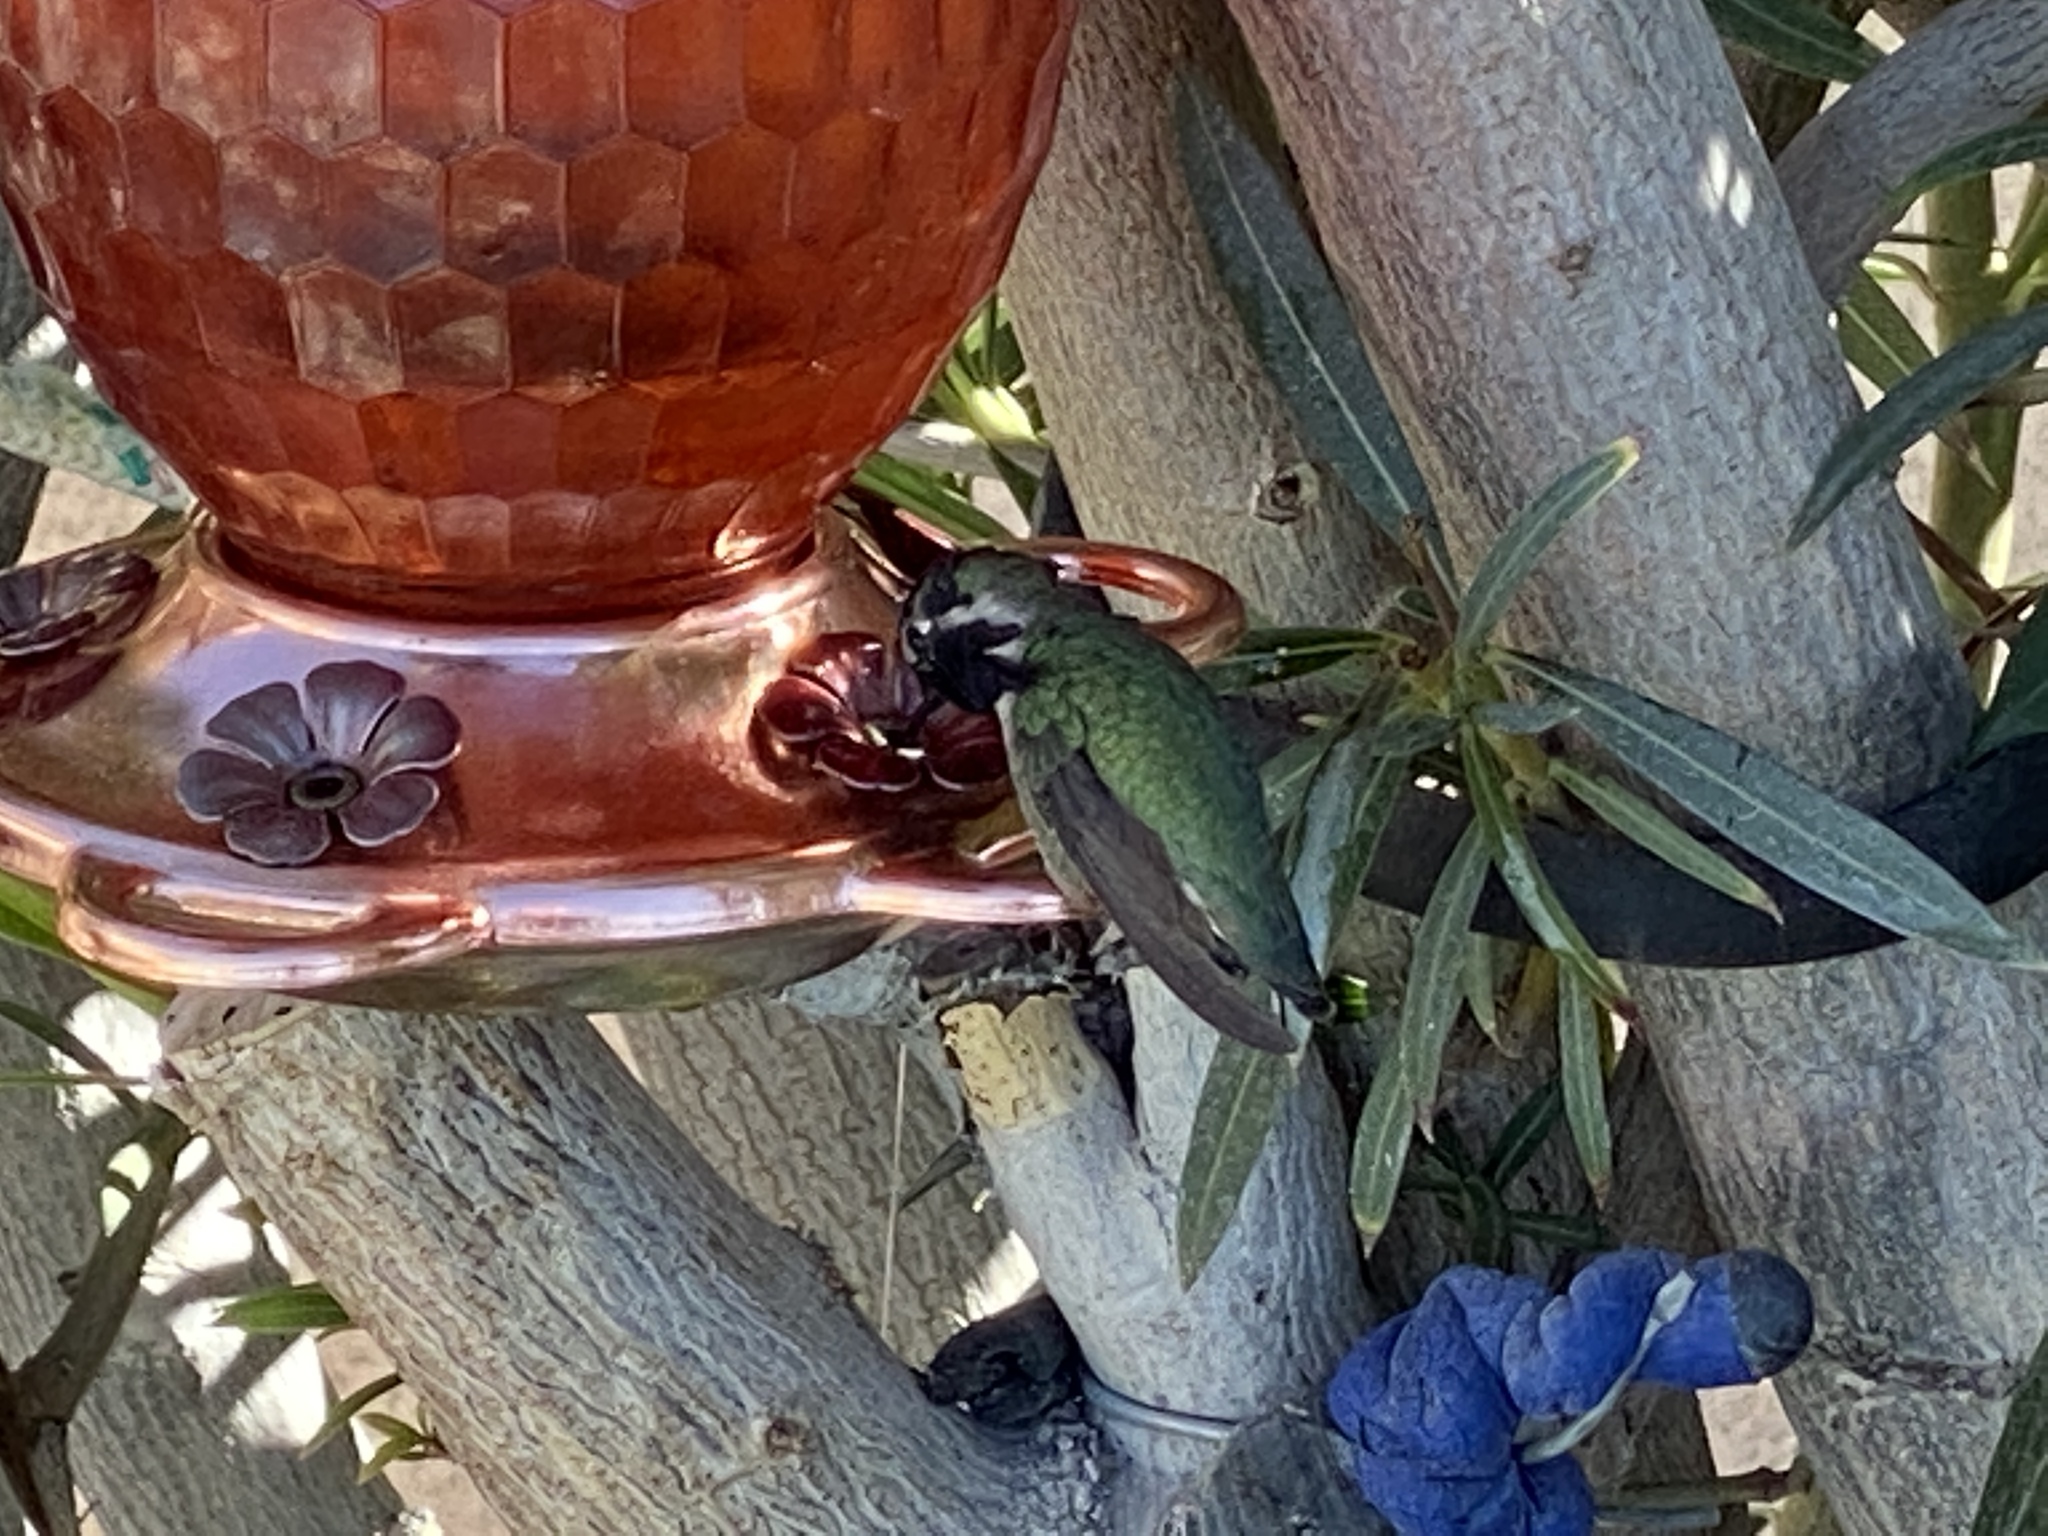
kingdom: Animalia
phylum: Chordata
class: Aves
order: Apodiformes
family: Trochilidae
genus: Calypte
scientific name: Calypte costae
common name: Costa's hummingbird
